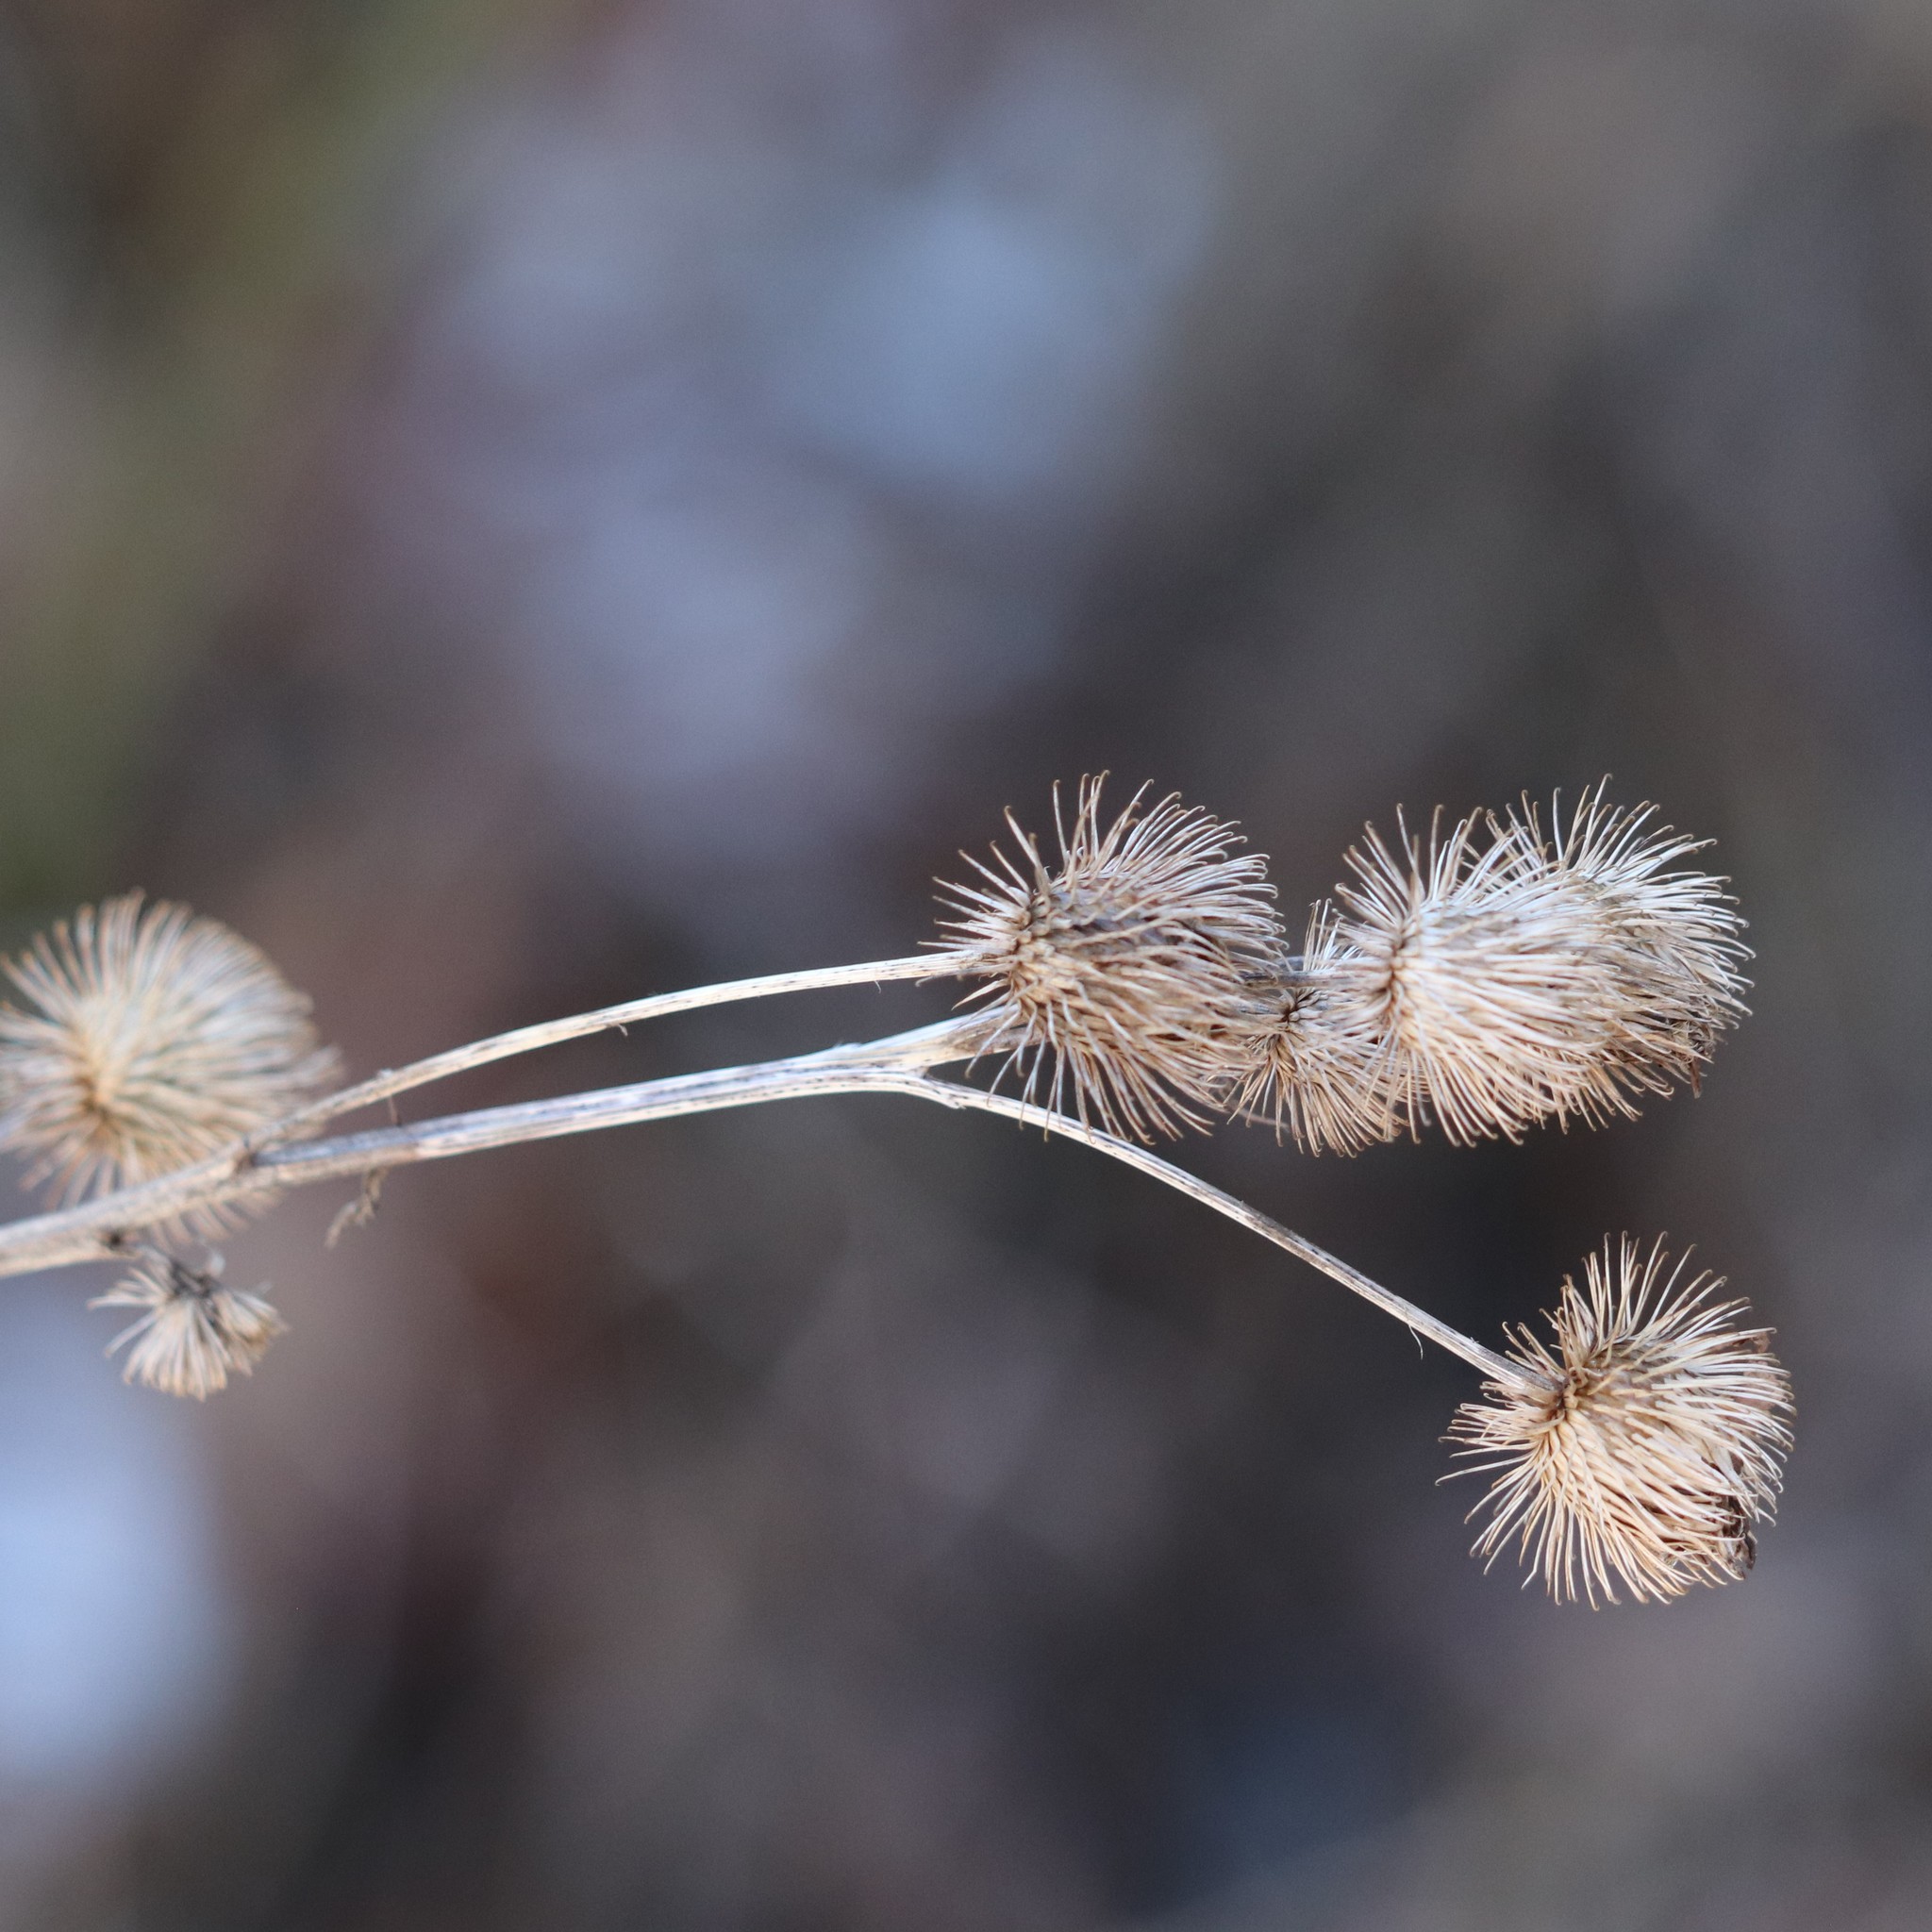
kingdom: Plantae
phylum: Tracheophyta
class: Magnoliopsida
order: Asterales
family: Asteraceae
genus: Arctium
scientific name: Arctium lappa
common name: Greater burdock
